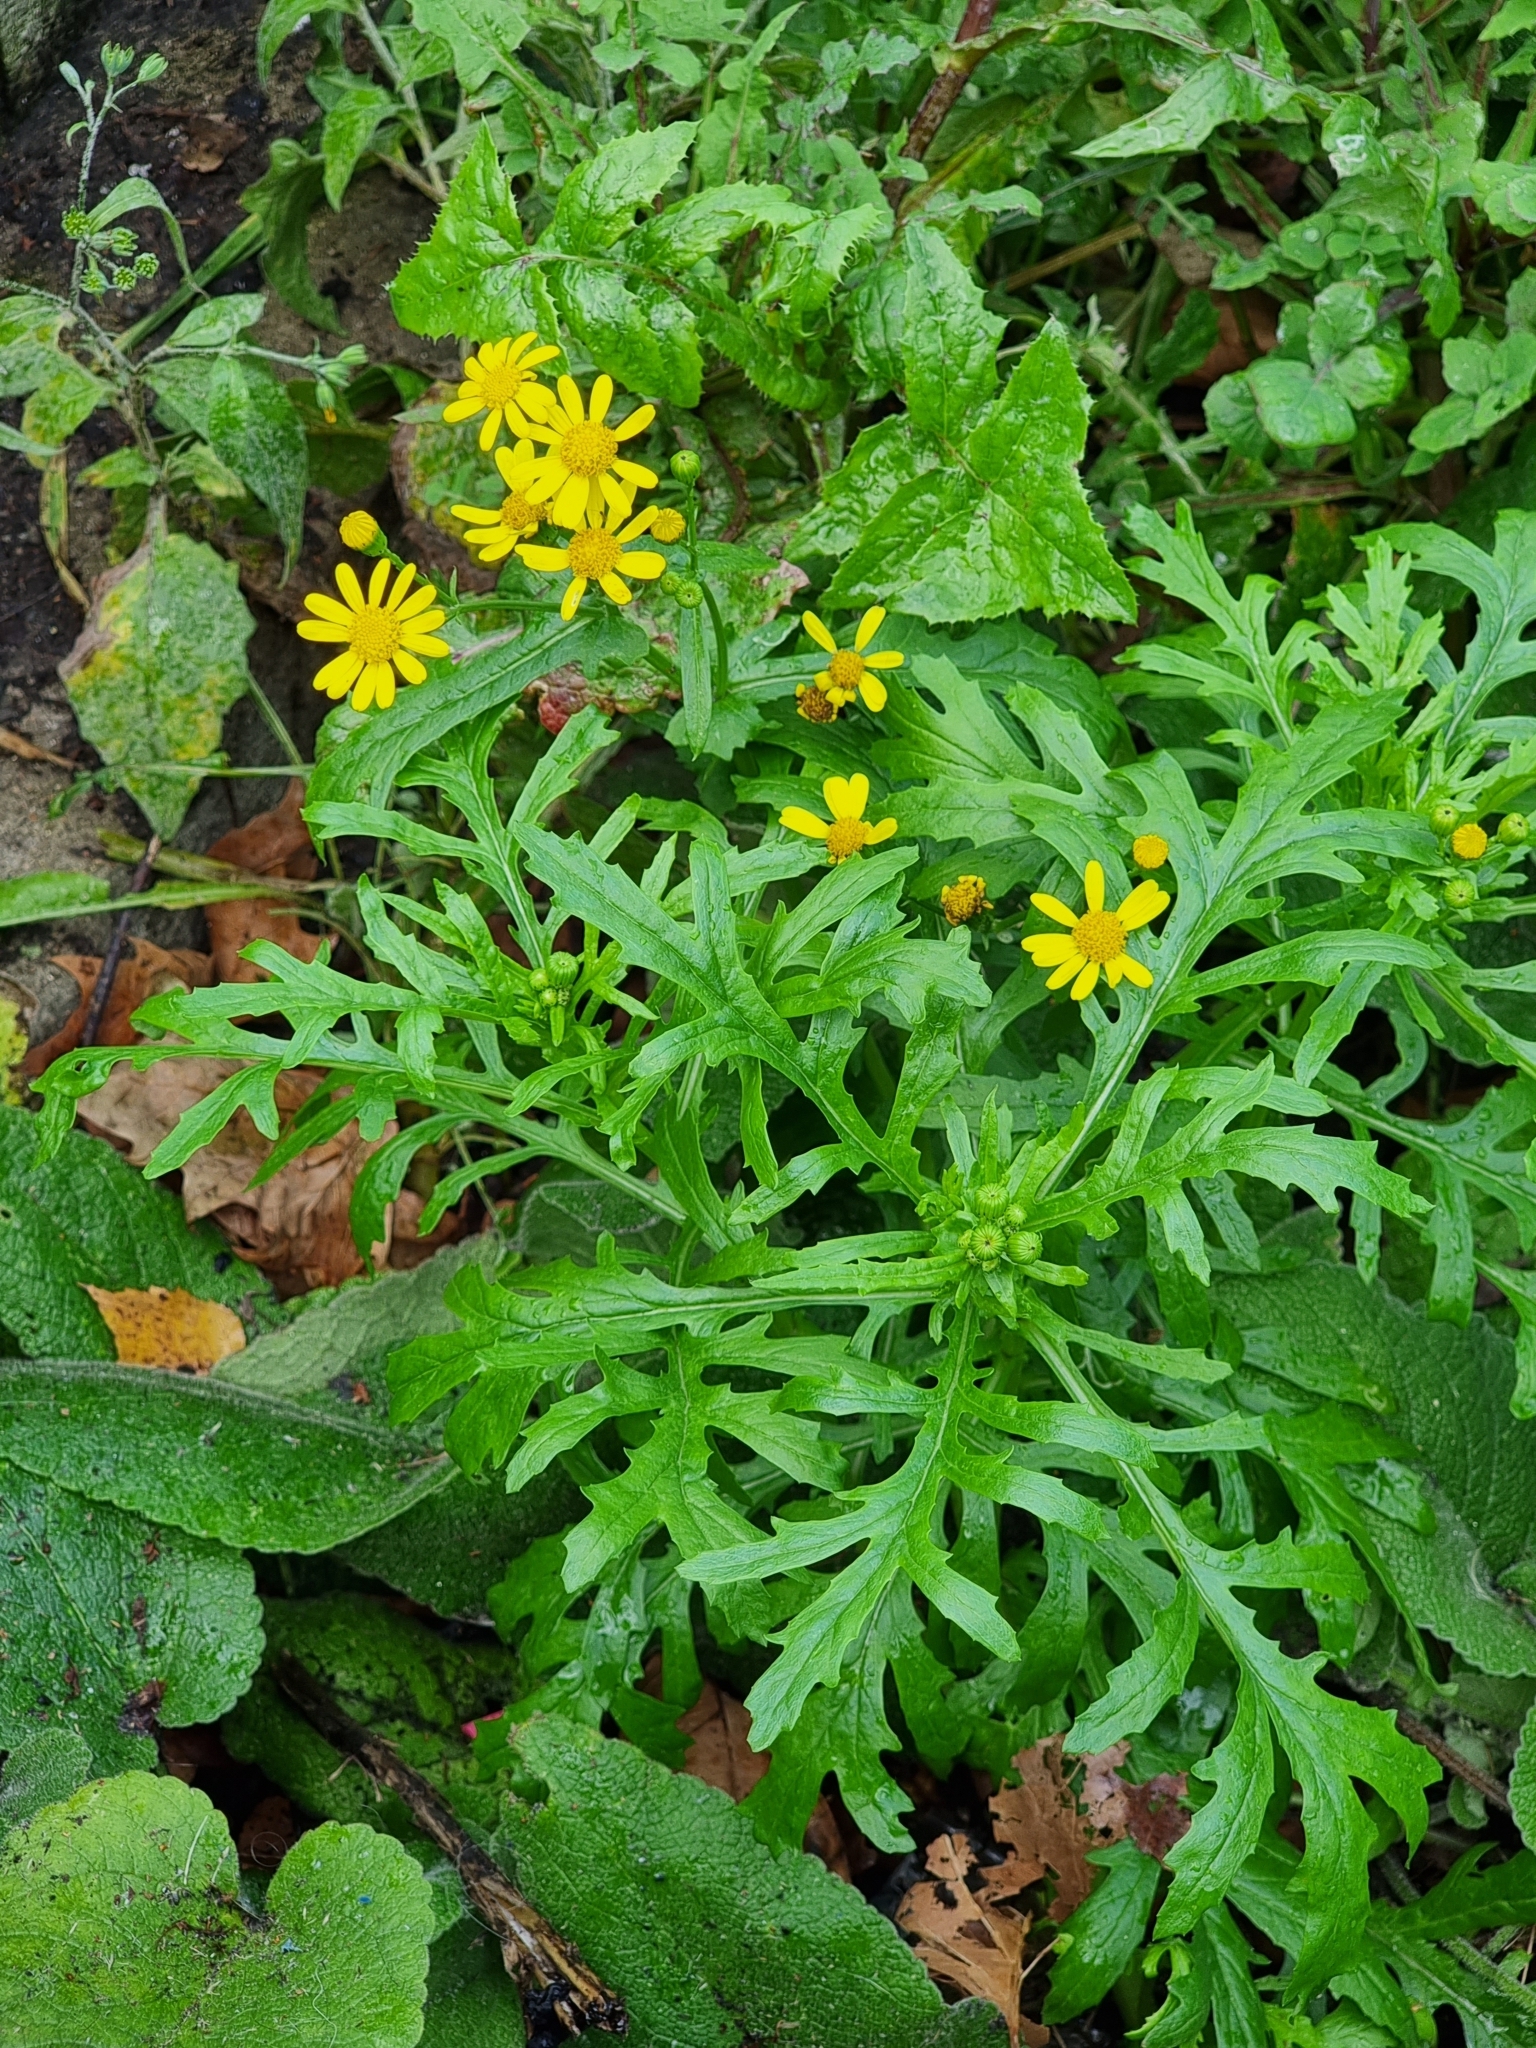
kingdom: Plantae
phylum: Tracheophyta
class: Magnoliopsida
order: Asterales
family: Asteraceae
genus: Senecio
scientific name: Senecio squalidus
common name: Oxford ragwort
